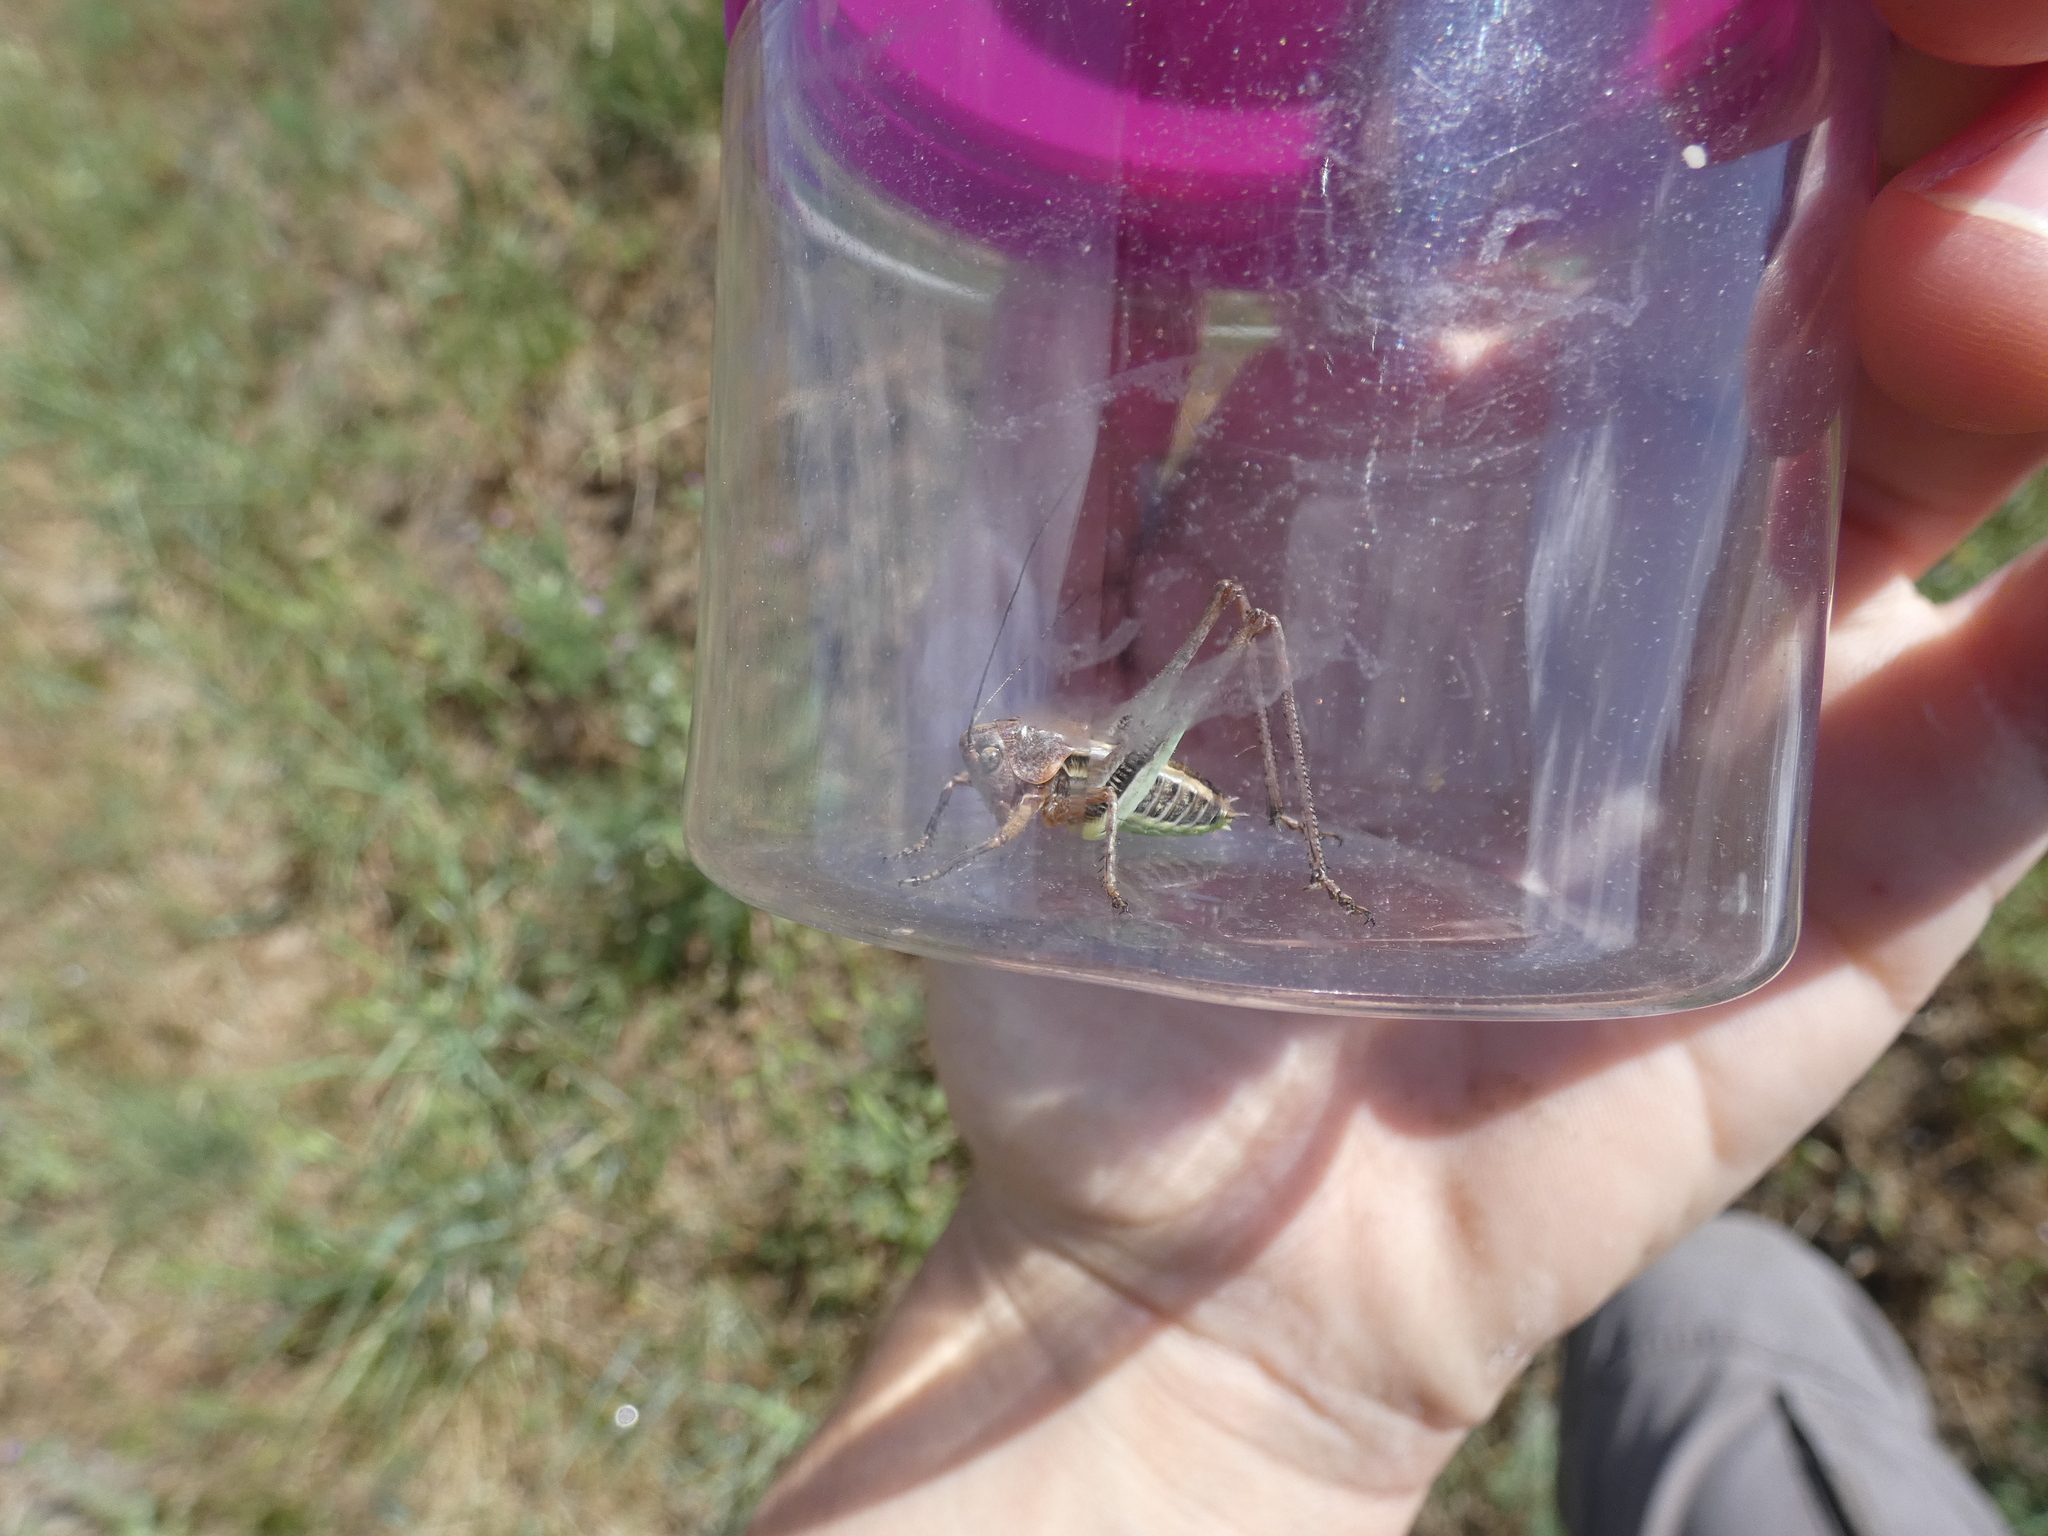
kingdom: Animalia
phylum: Arthropoda
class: Insecta
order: Orthoptera
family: Tettigoniidae
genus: Decticus
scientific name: Decticus albifrons
